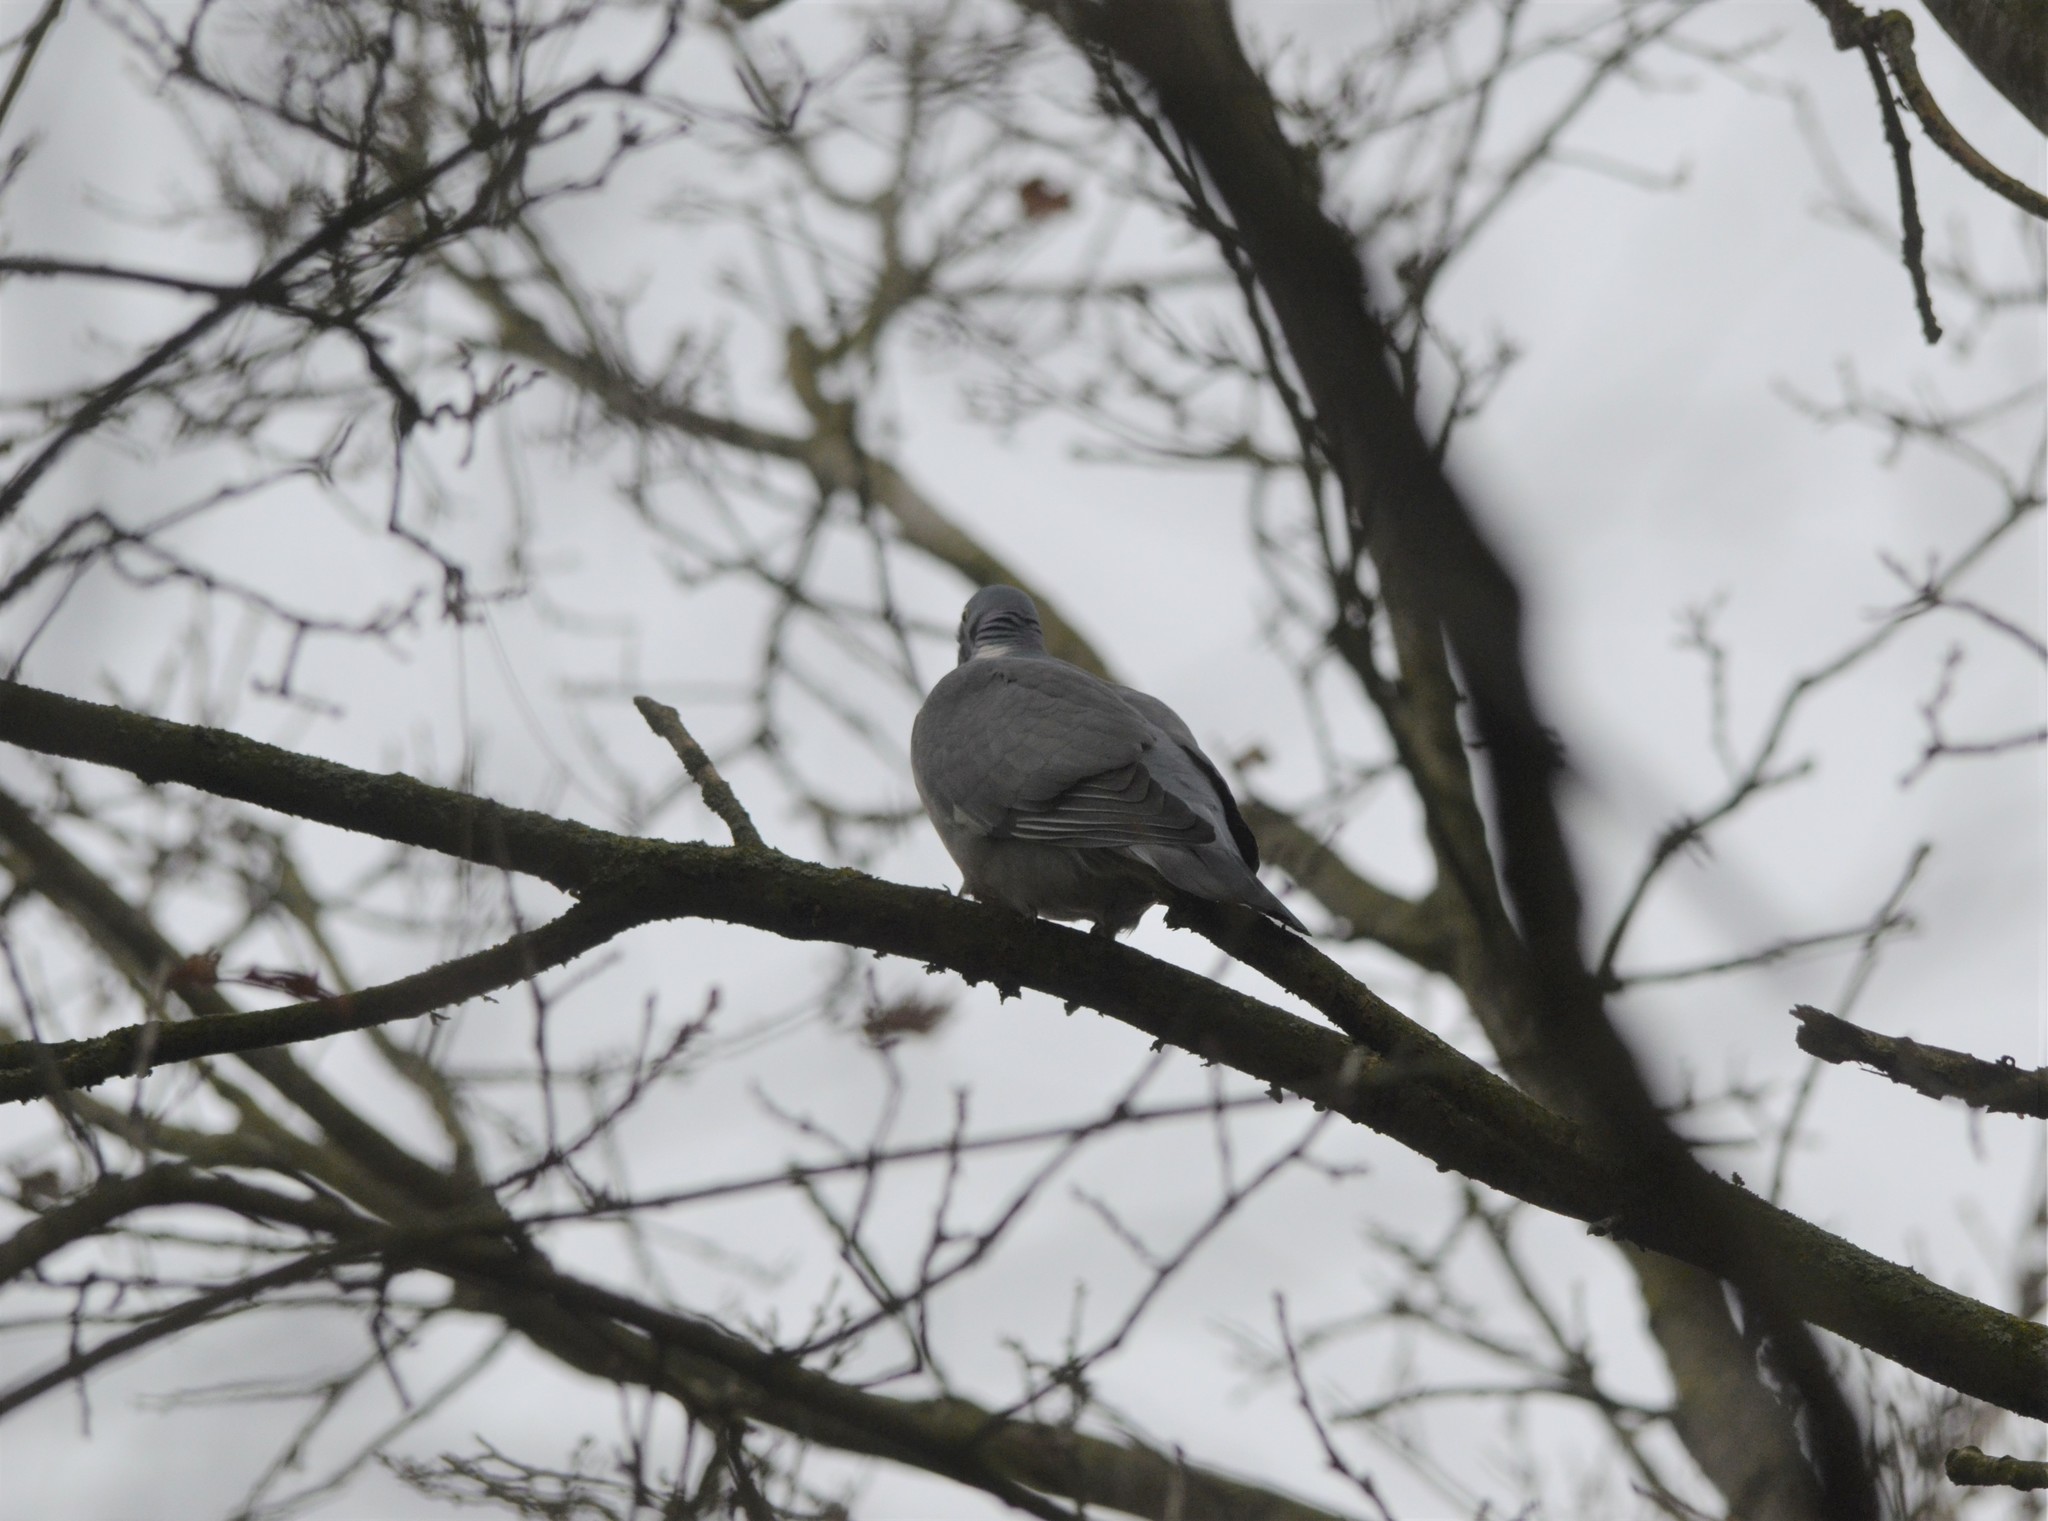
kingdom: Animalia
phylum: Chordata
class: Aves
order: Columbiformes
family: Columbidae
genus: Columba
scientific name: Columba palumbus
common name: Common wood pigeon
